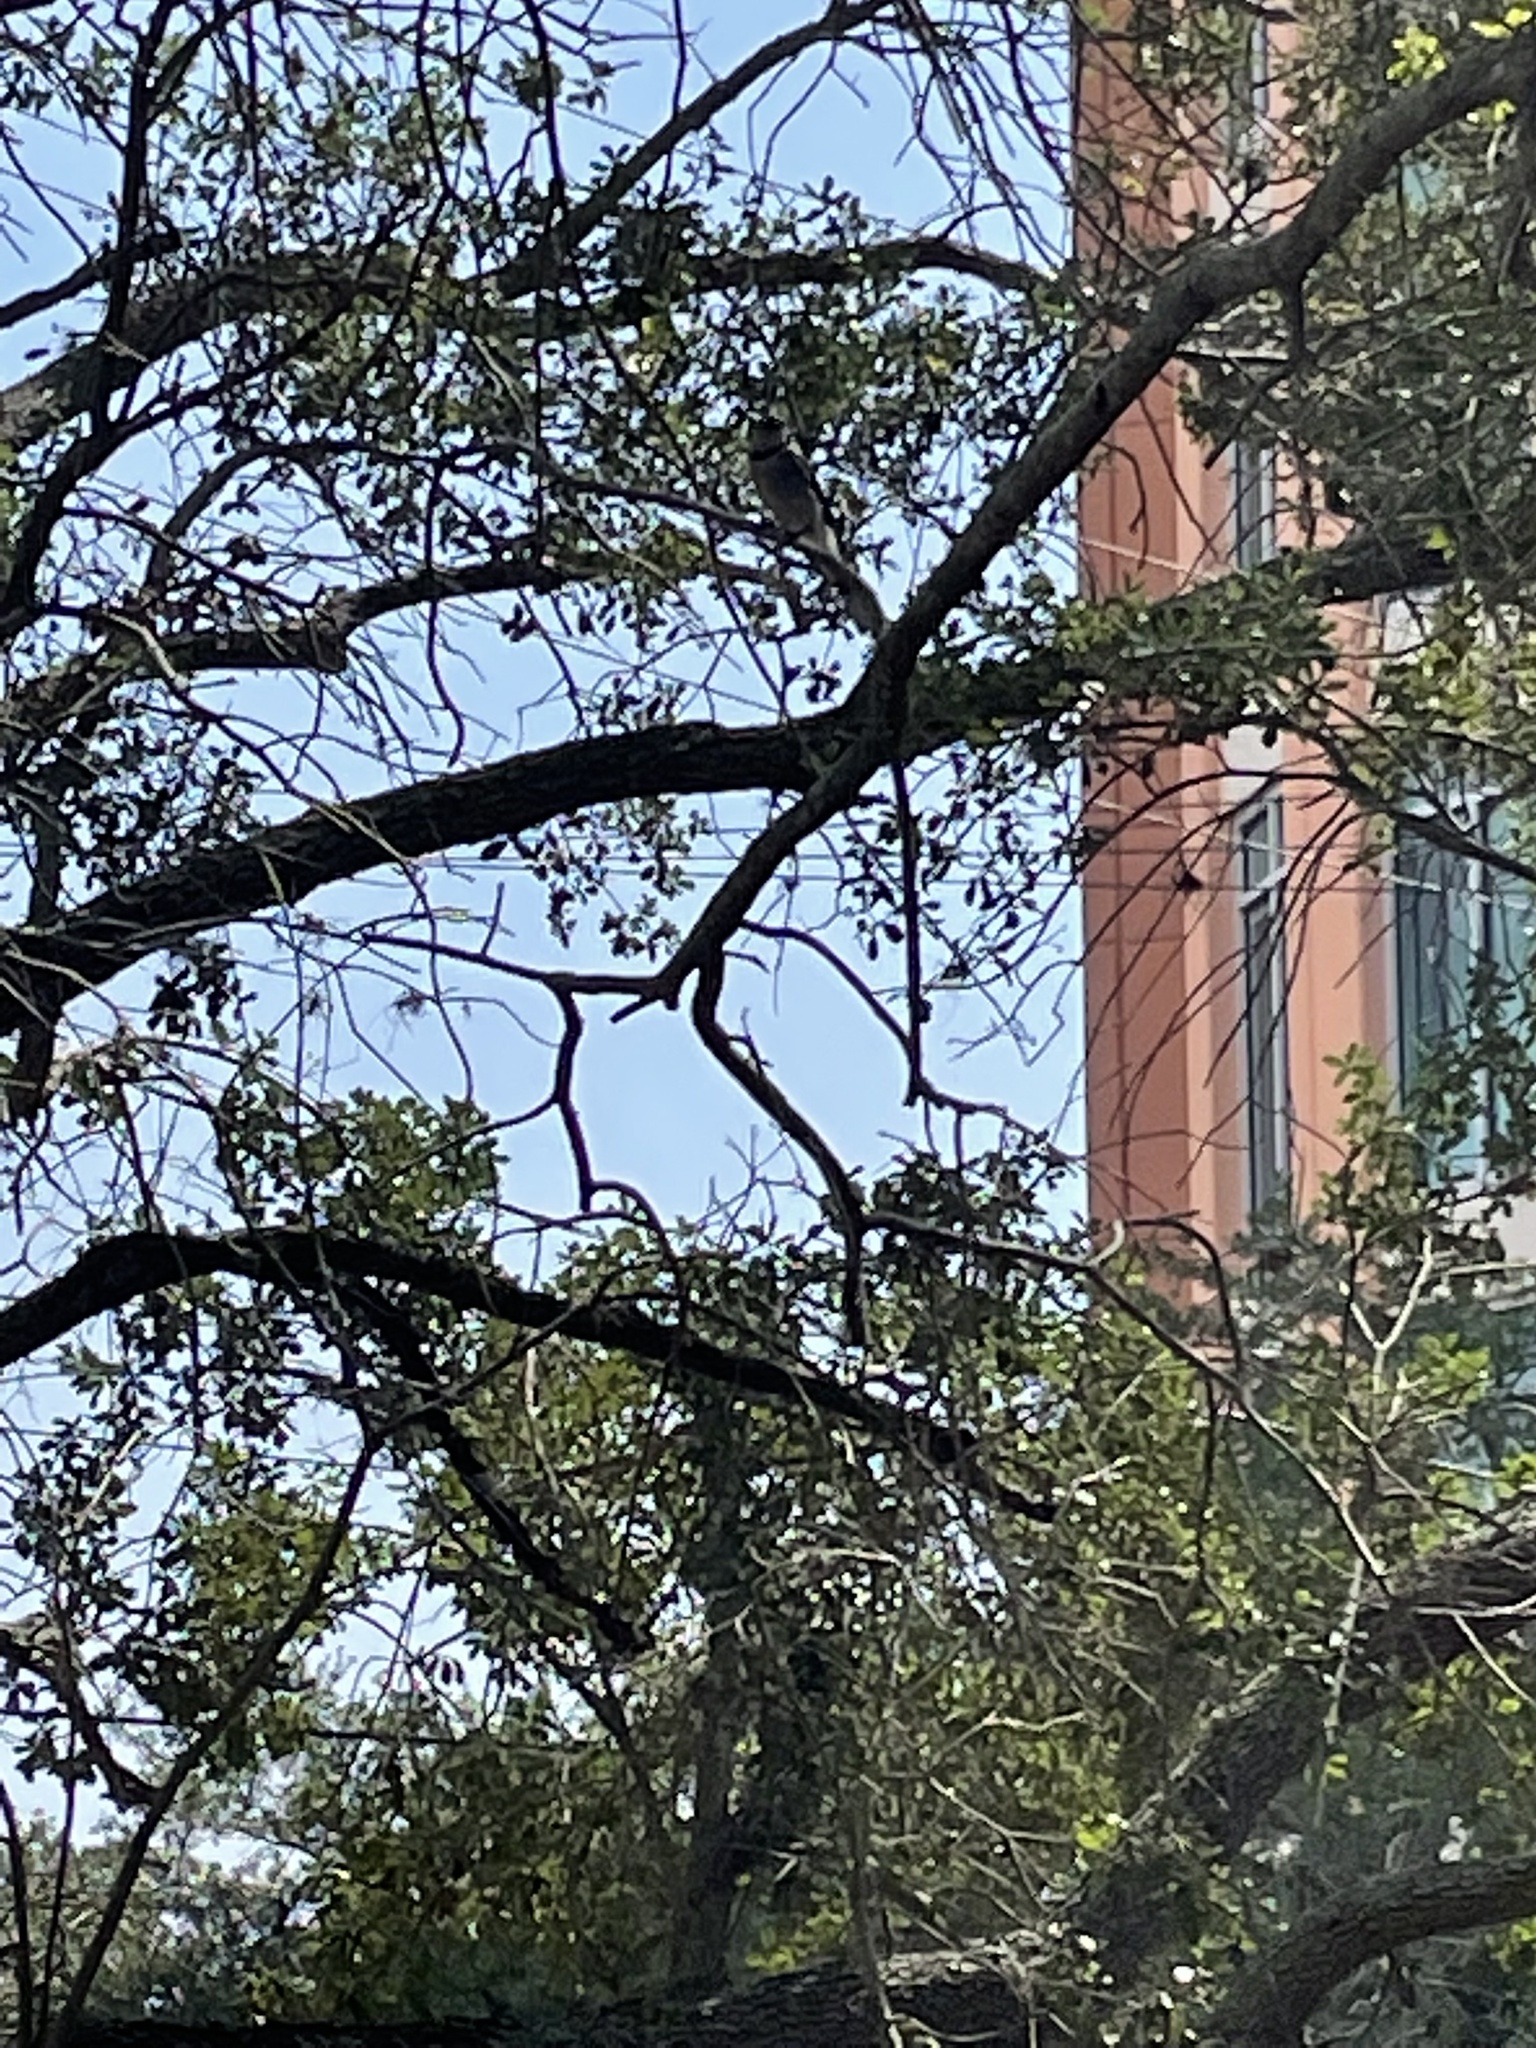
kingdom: Animalia
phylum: Chordata
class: Aves
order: Passeriformes
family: Corvidae
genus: Cyanocitta
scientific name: Cyanocitta cristata
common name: Blue jay
